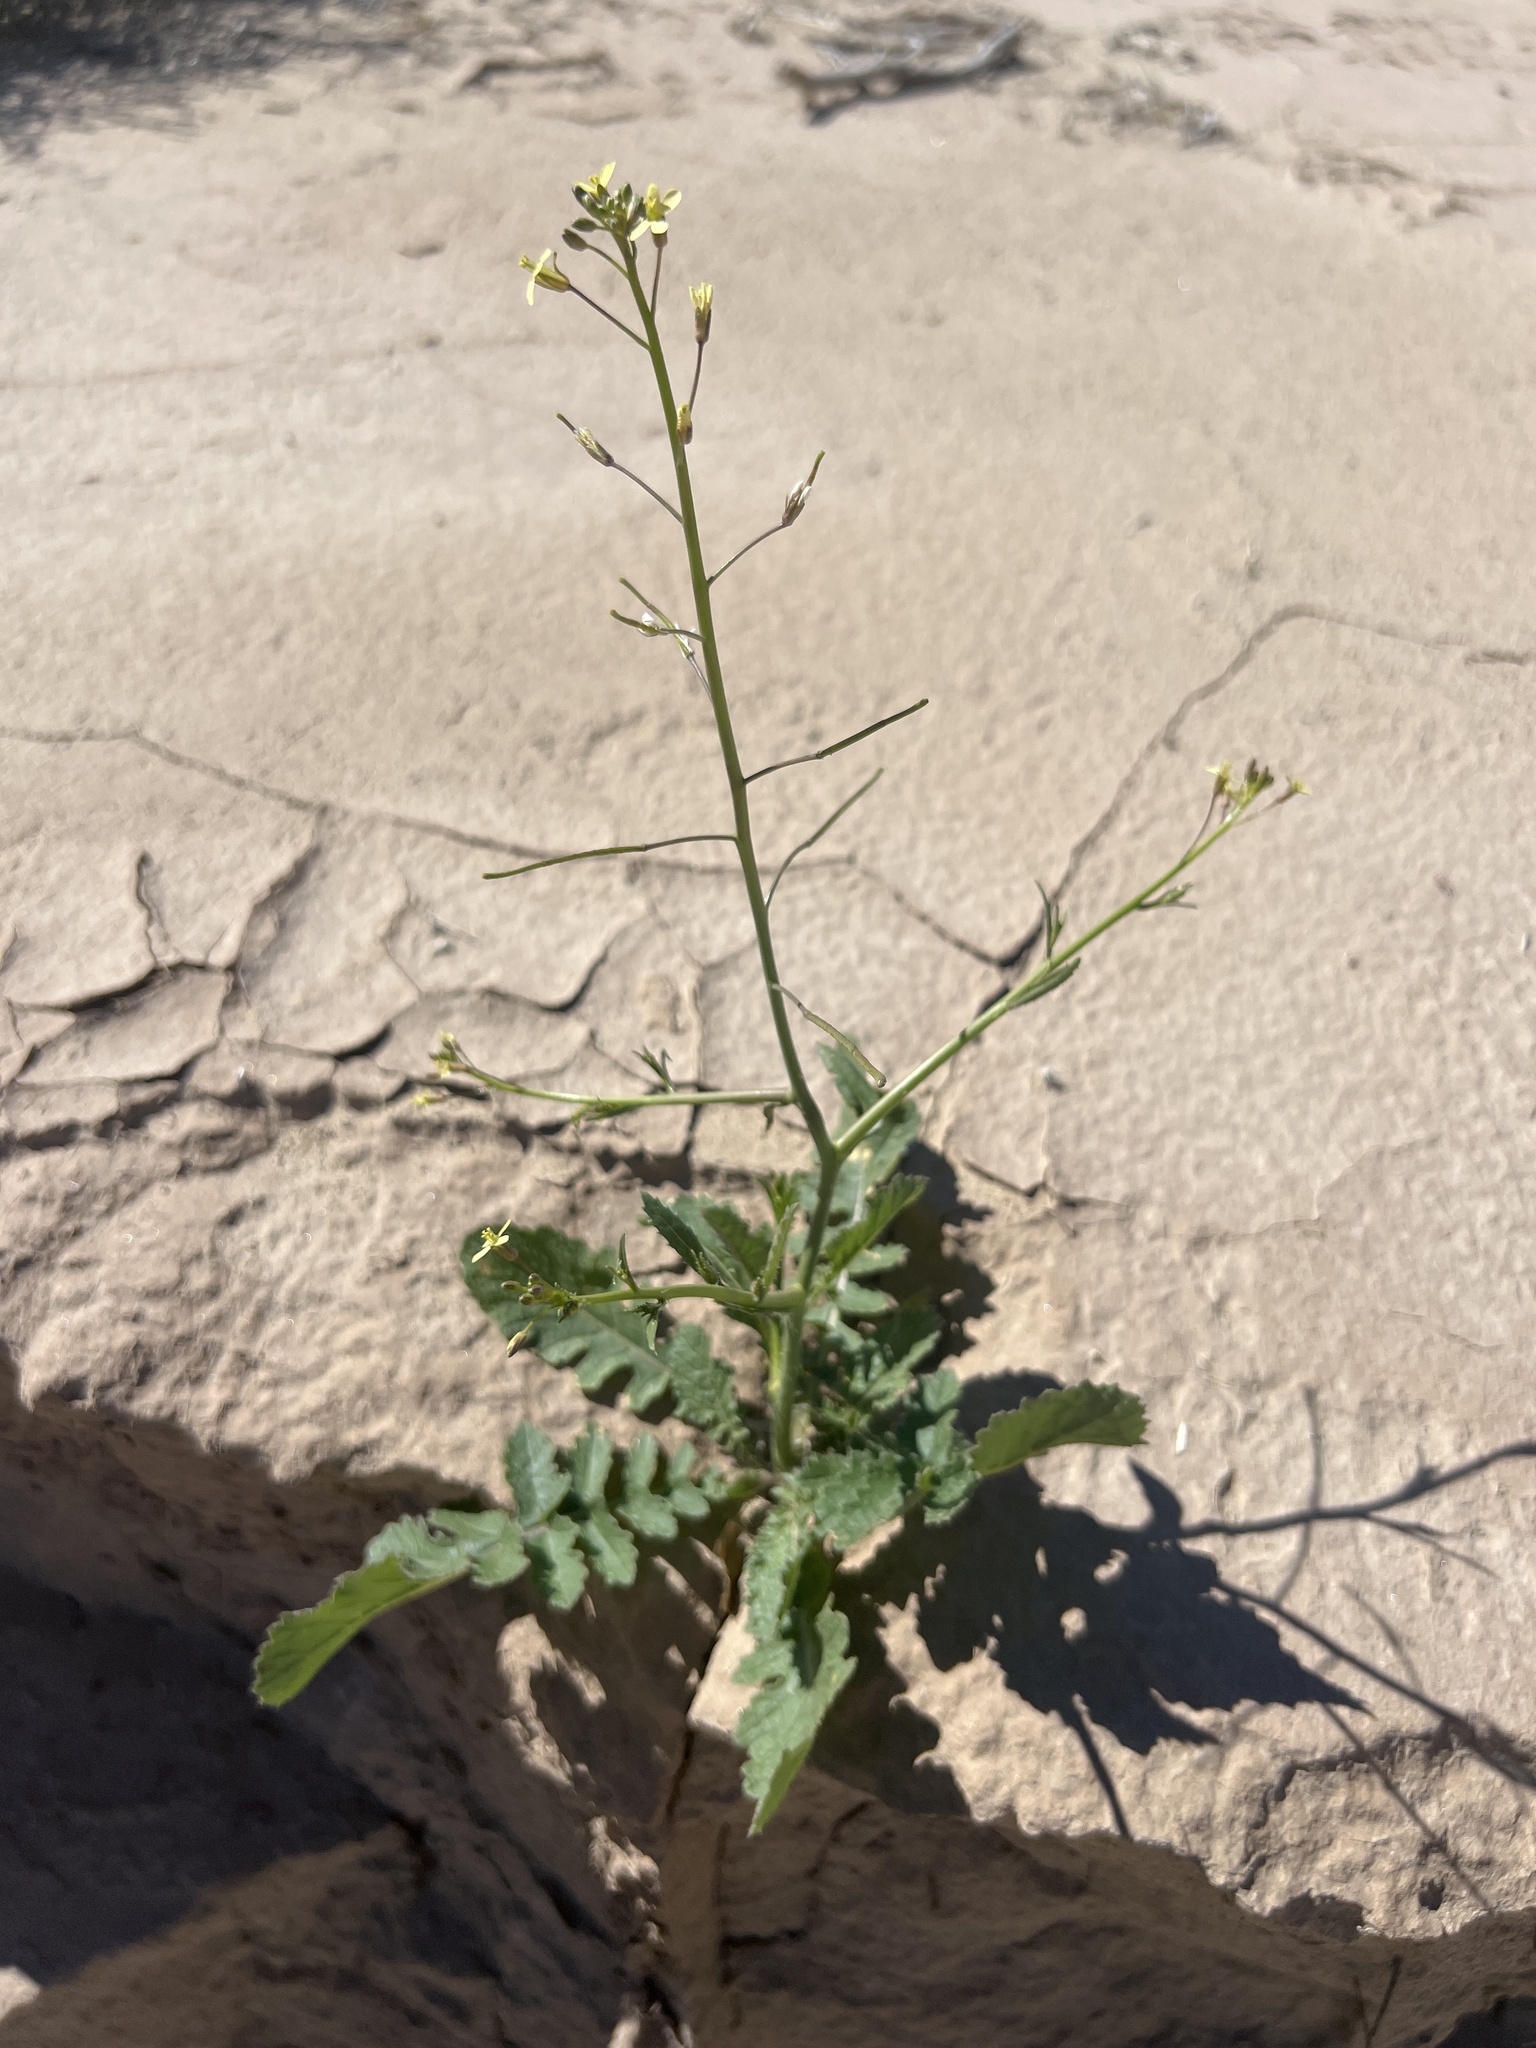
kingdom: Plantae
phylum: Tracheophyta
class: Magnoliopsida
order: Brassicales
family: Brassicaceae
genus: Brassica
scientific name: Brassica tournefortii
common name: Pale cabbage
